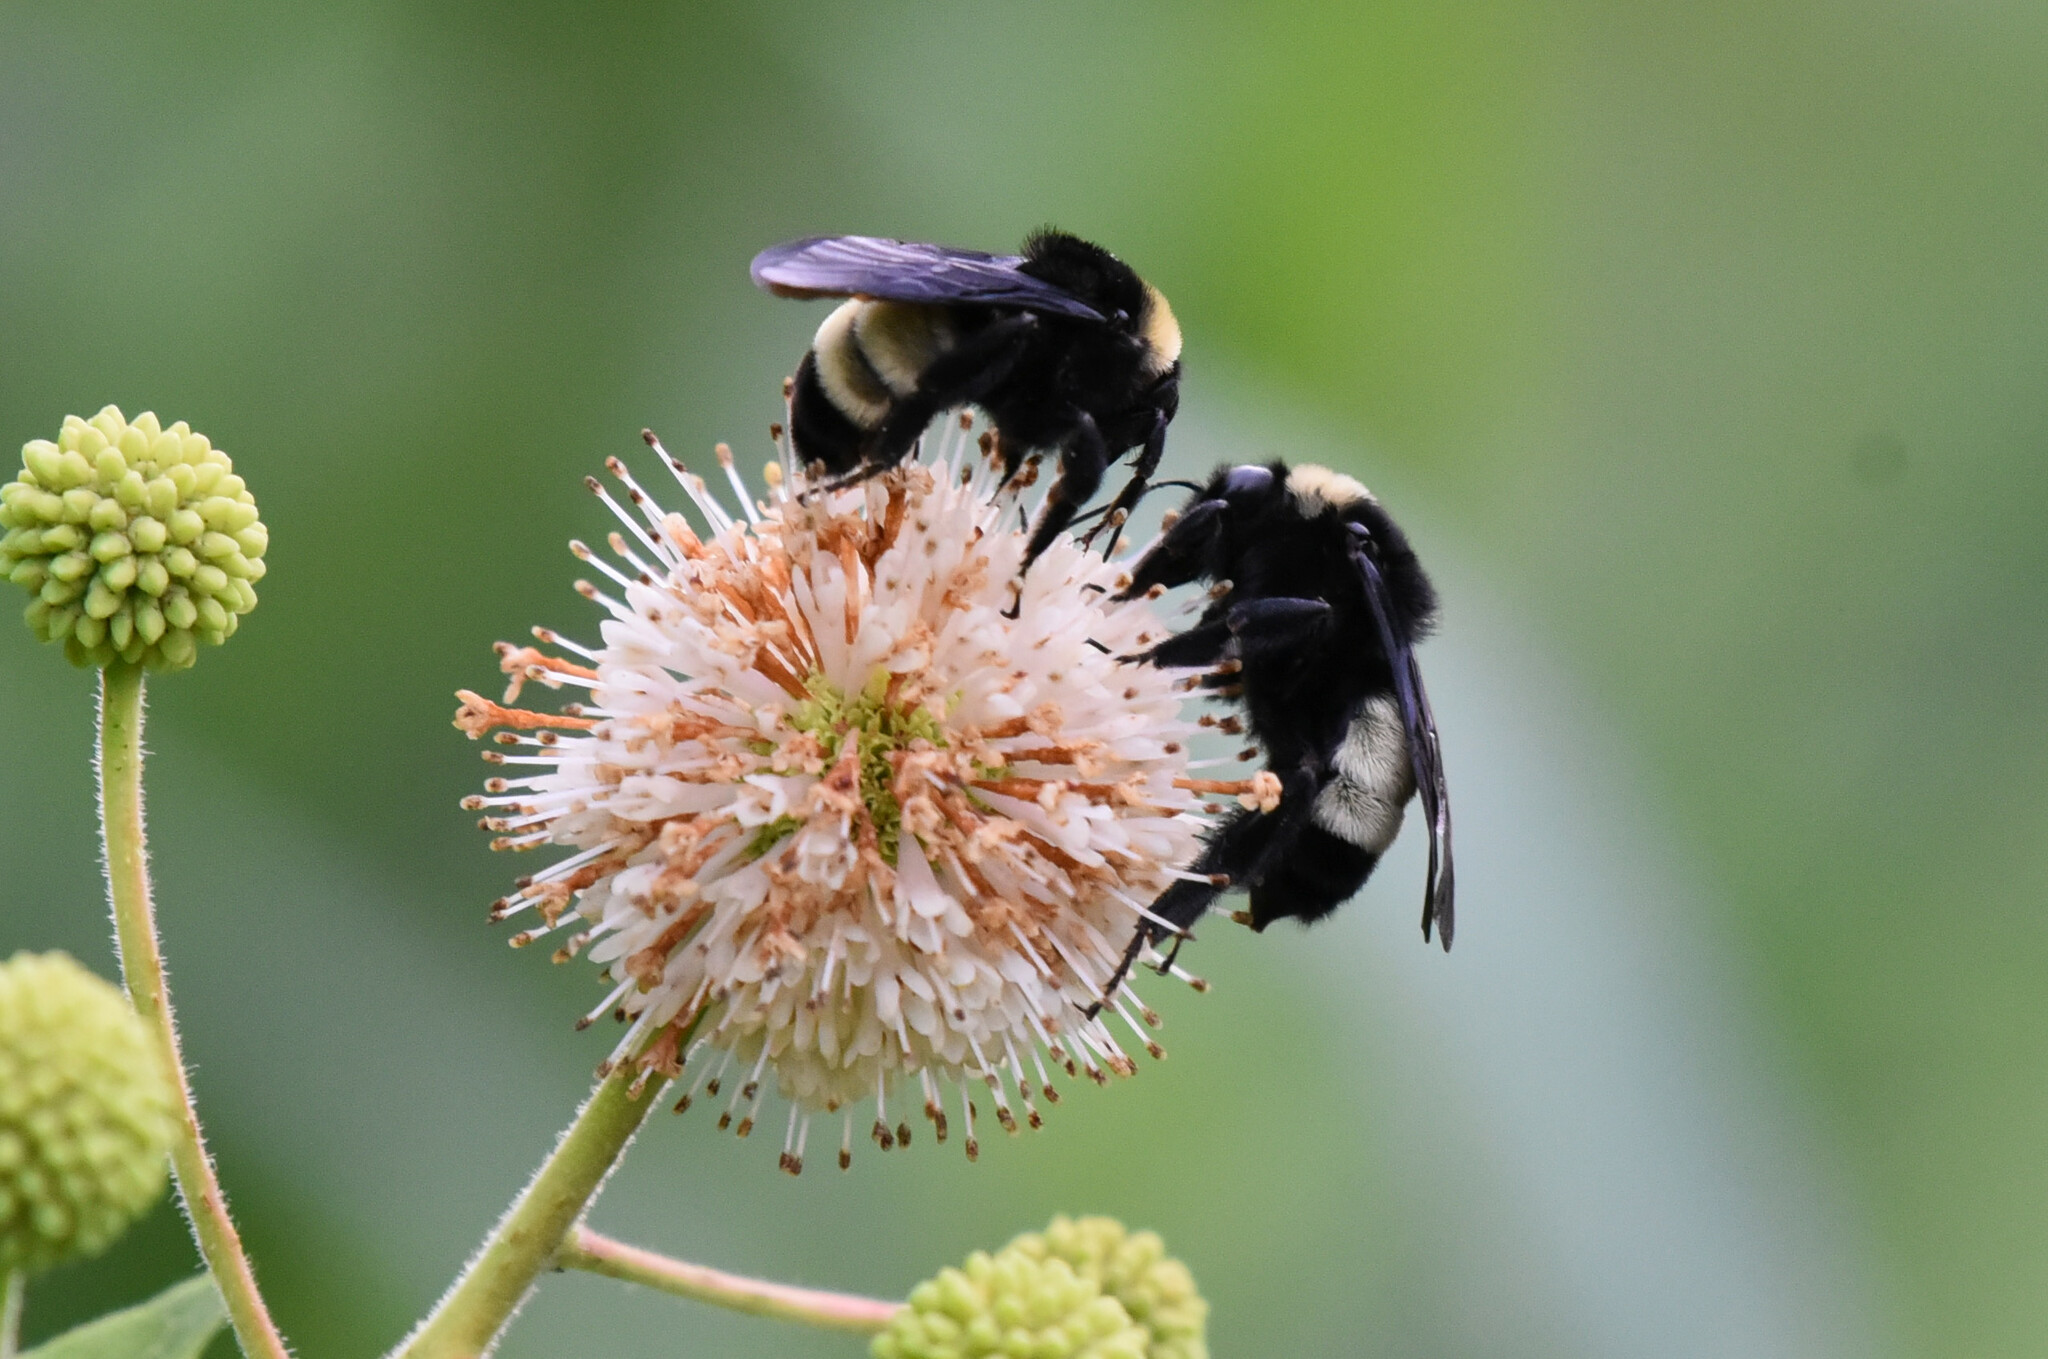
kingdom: Animalia
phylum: Arthropoda
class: Insecta
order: Hymenoptera
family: Apidae
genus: Bombus
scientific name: Bombus pensylvanicus
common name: Bumble bee
